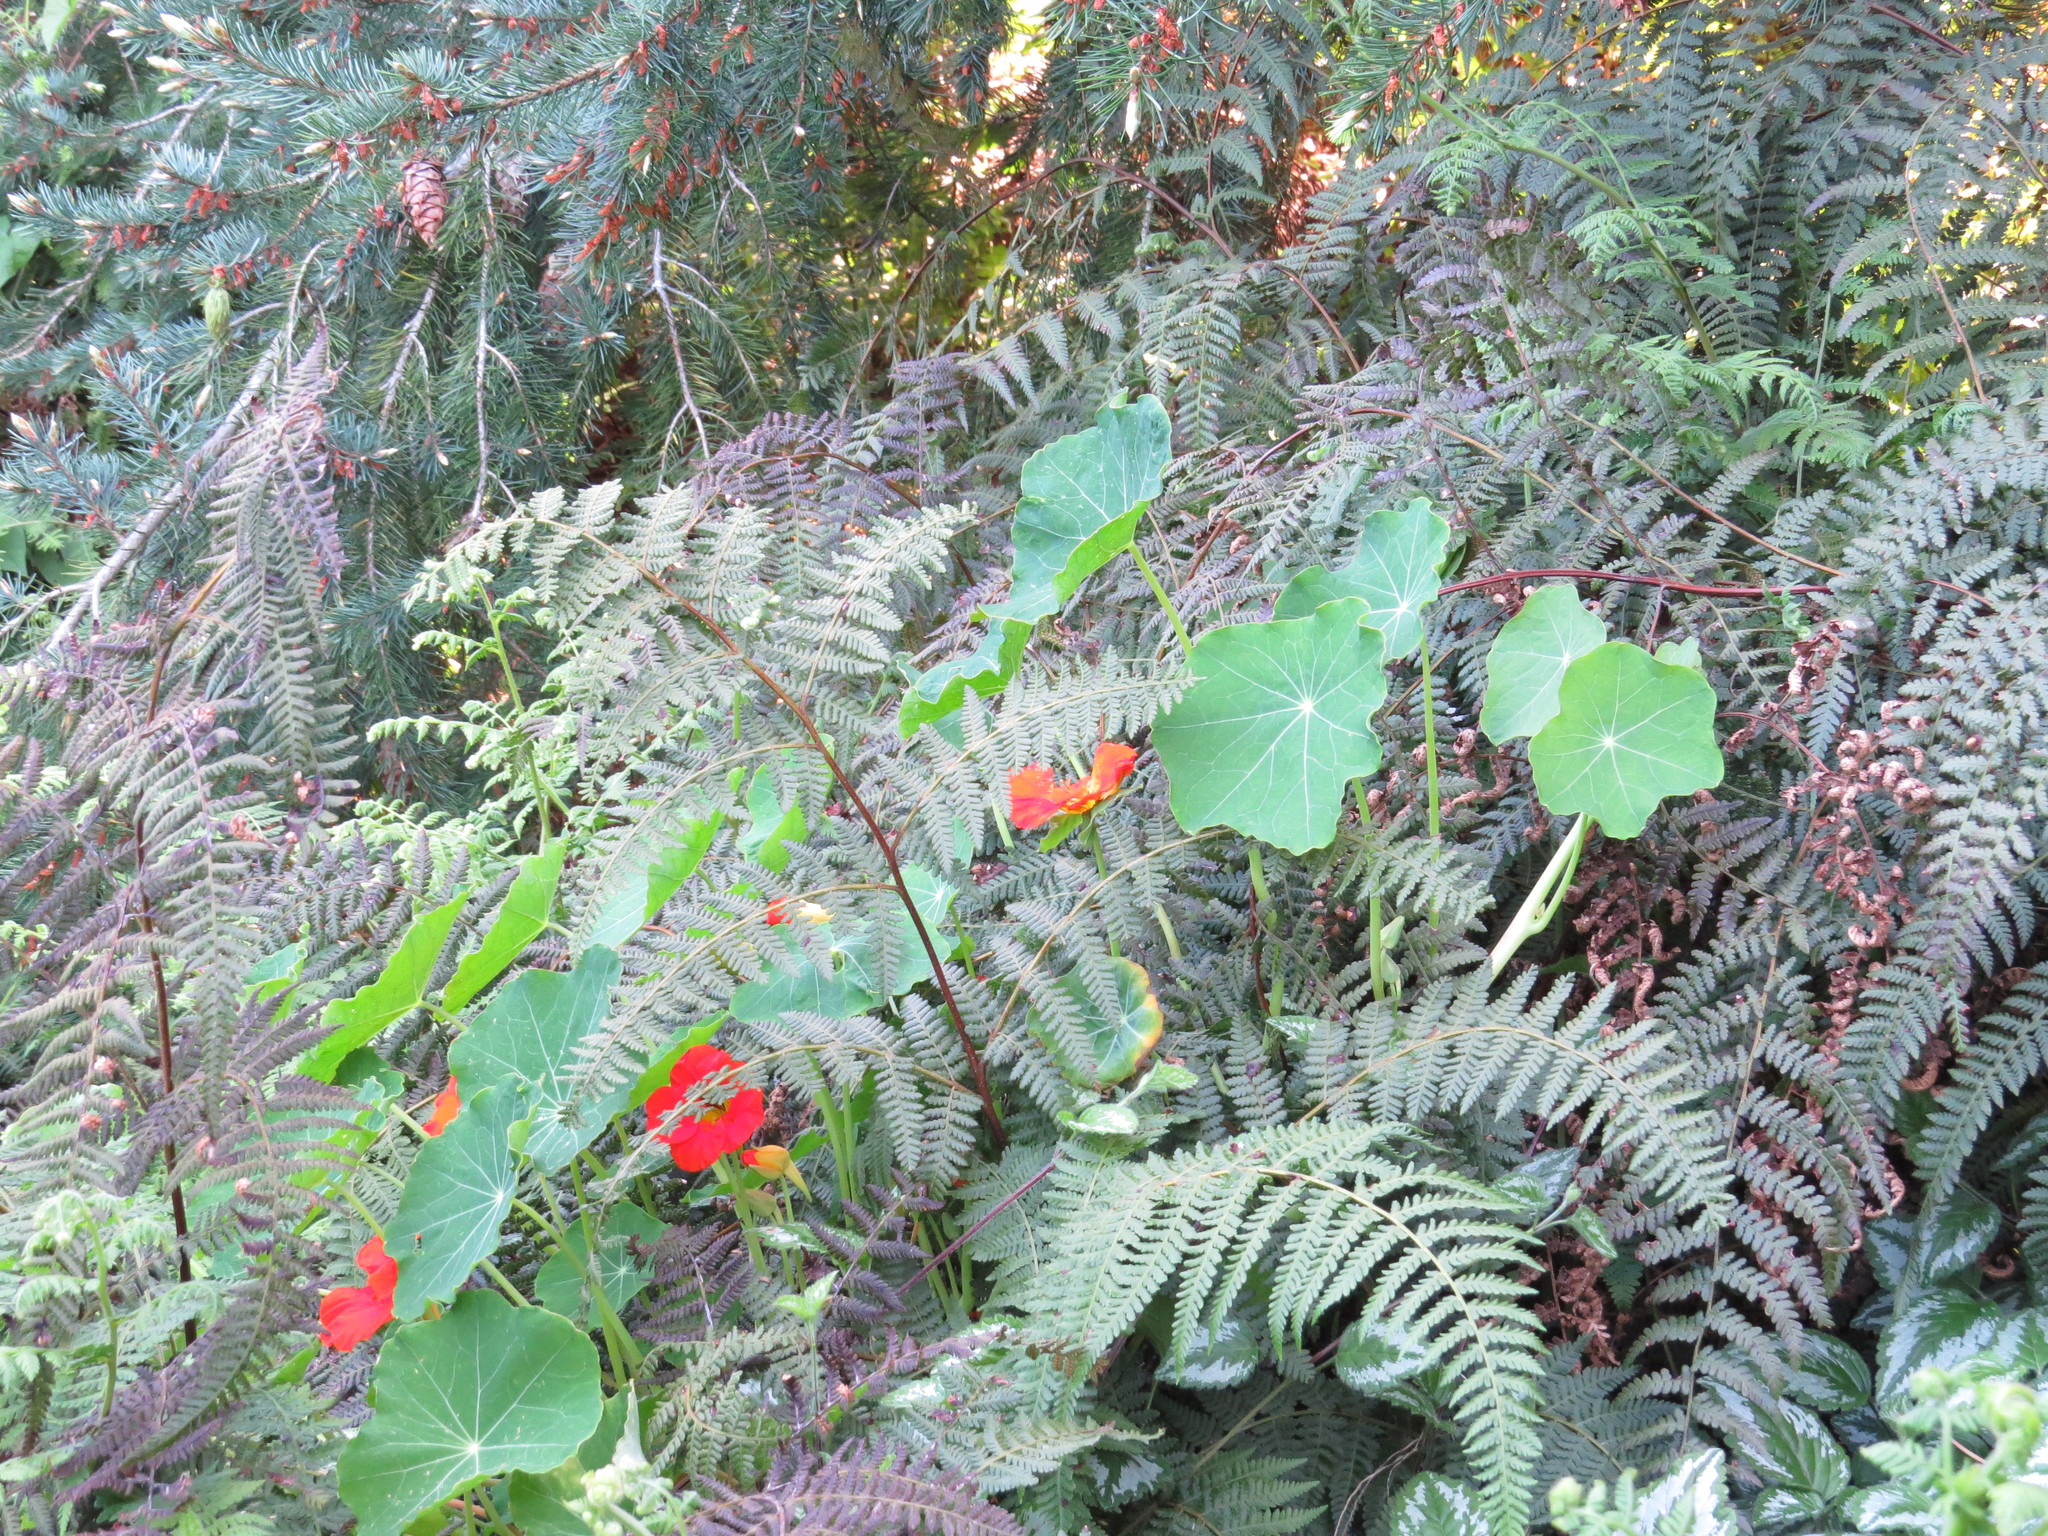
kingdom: Plantae
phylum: Tracheophyta
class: Magnoliopsida
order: Brassicales
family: Tropaeolaceae
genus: Tropaeolum
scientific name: Tropaeolum majus
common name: Nasturtium
